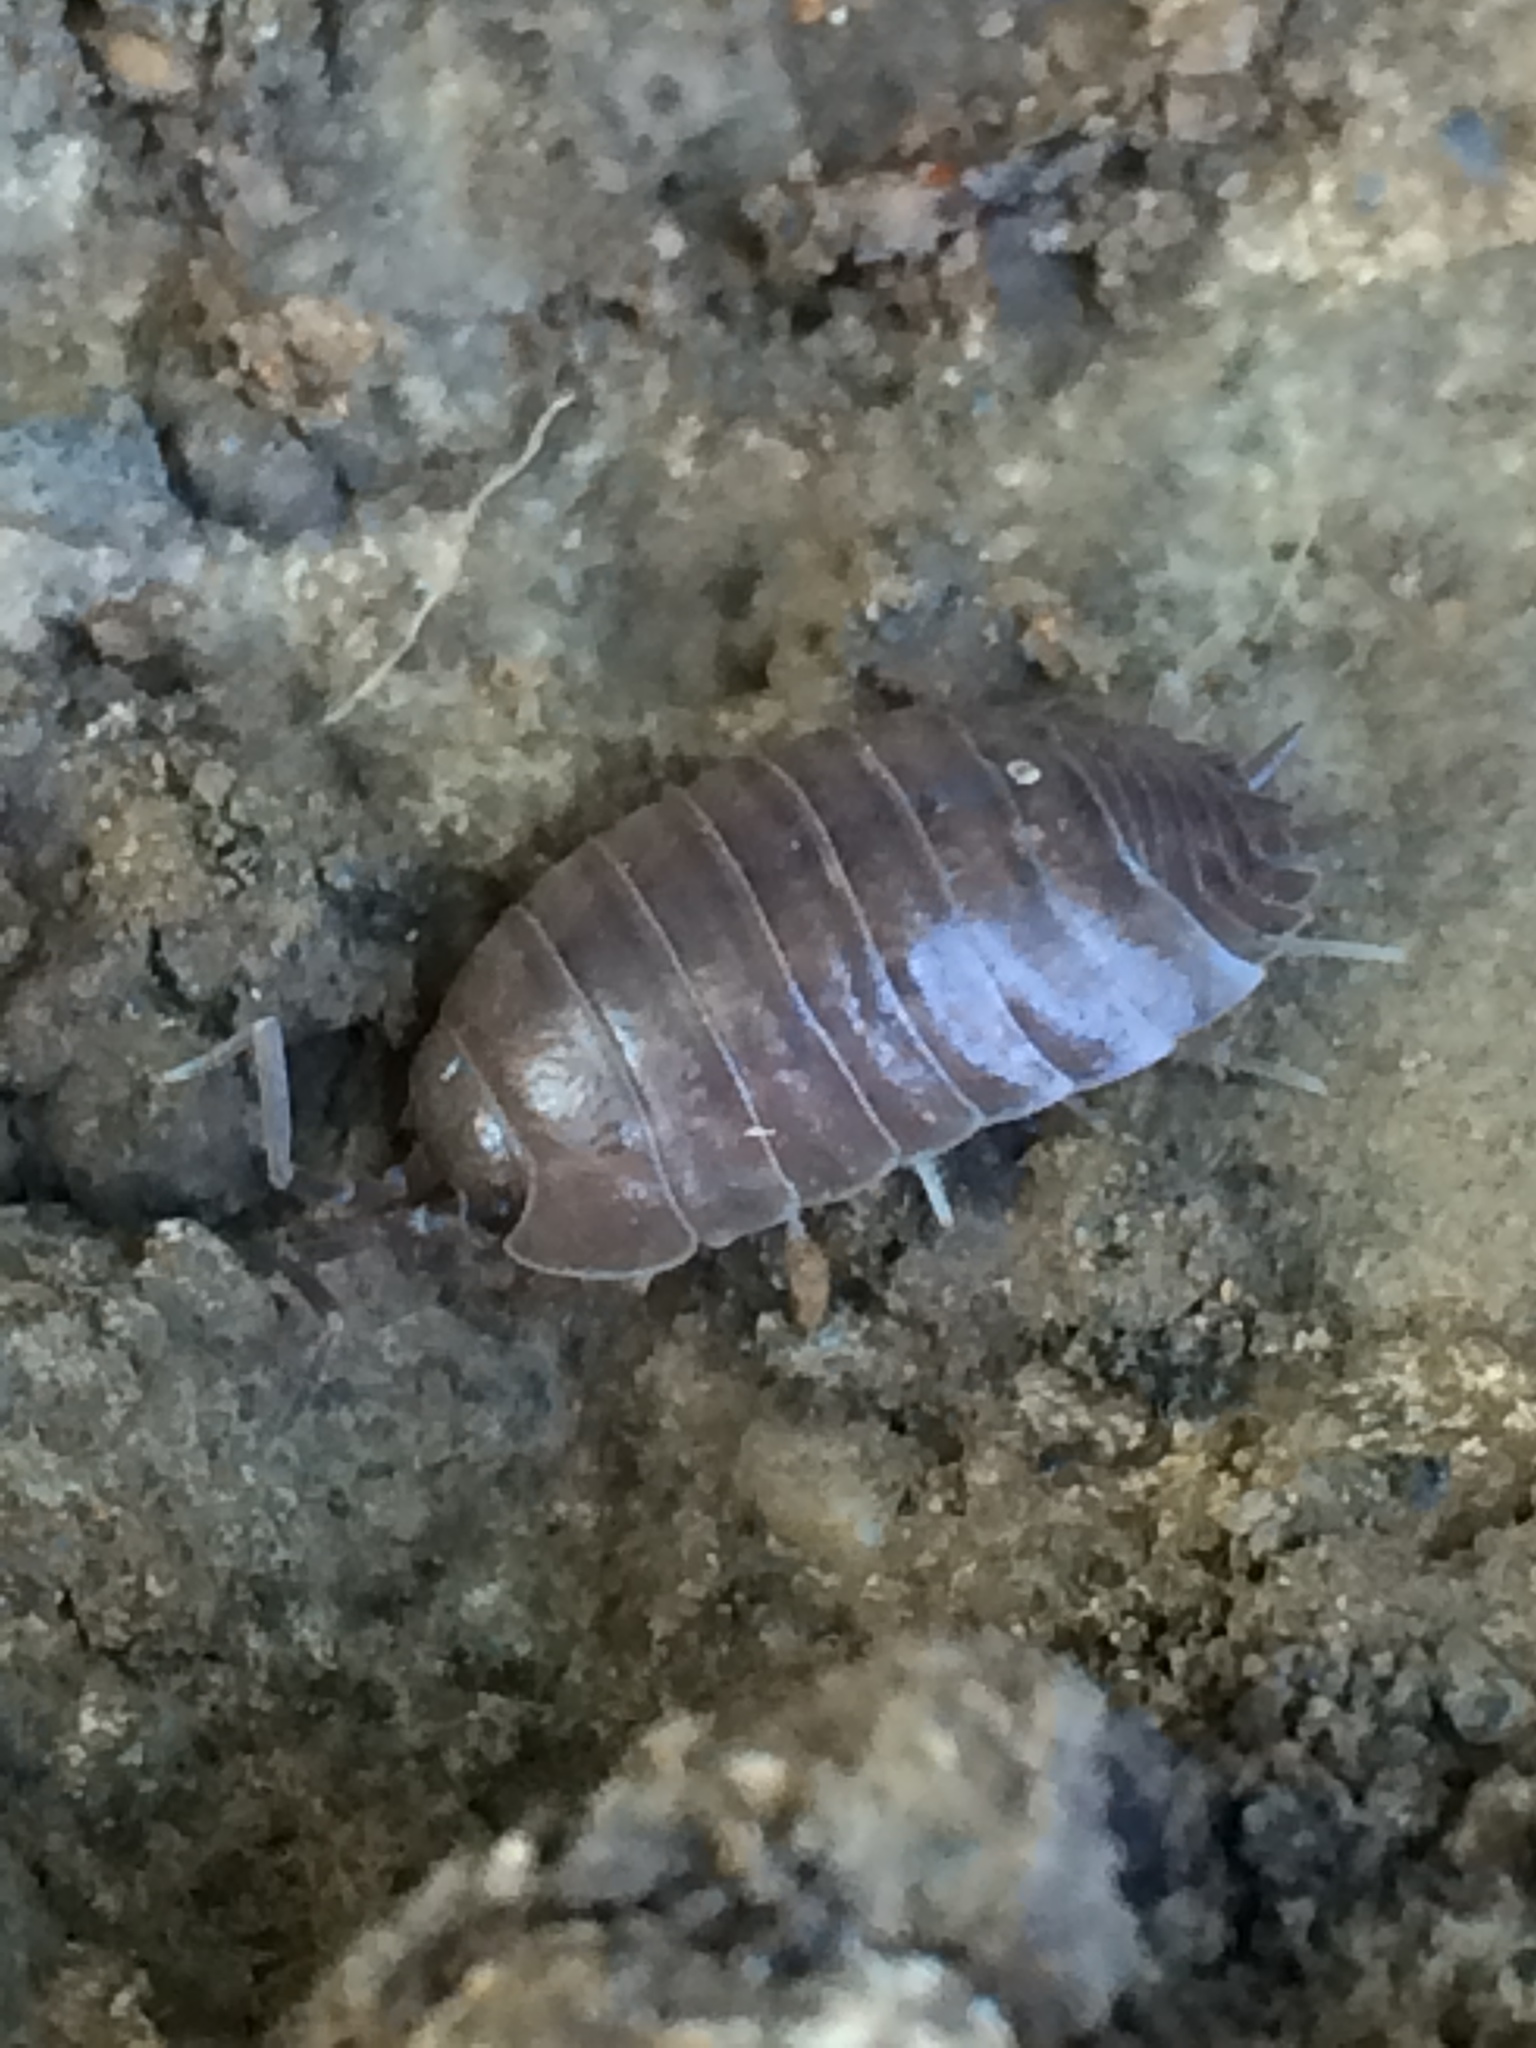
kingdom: Animalia
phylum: Arthropoda
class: Malacostraca
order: Isopoda
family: Porcellionidae
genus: Porcellio
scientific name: Porcellio laevis
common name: Swift woodlouse
